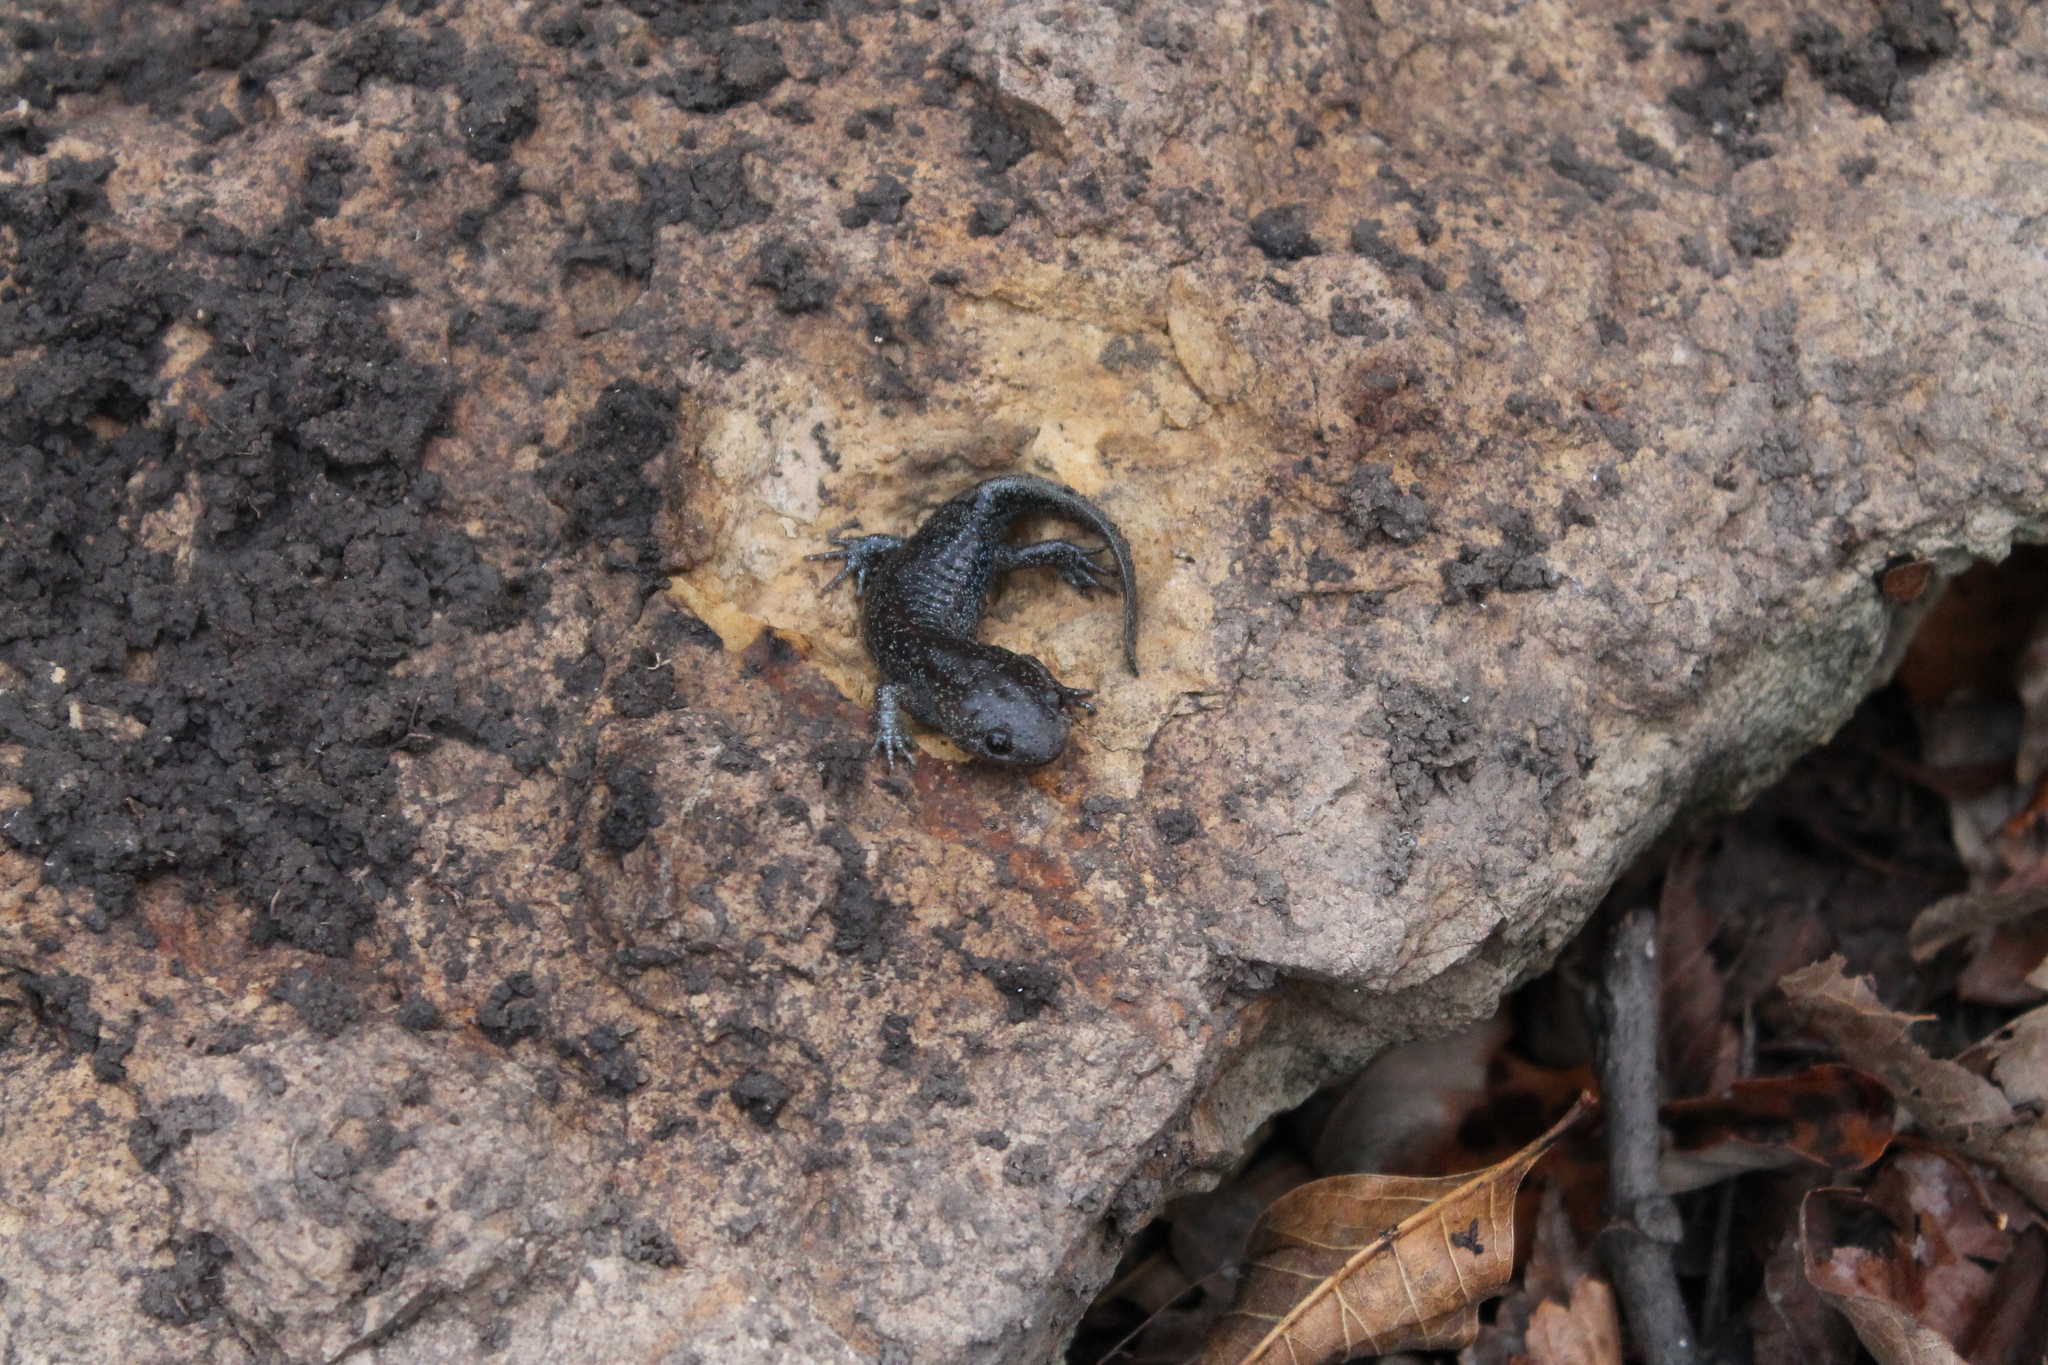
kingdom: Animalia
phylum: Chordata
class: Amphibia
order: Caudata
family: Ambystomatidae
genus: Ambystoma
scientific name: Ambystoma talpoideum
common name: Mole salamander
